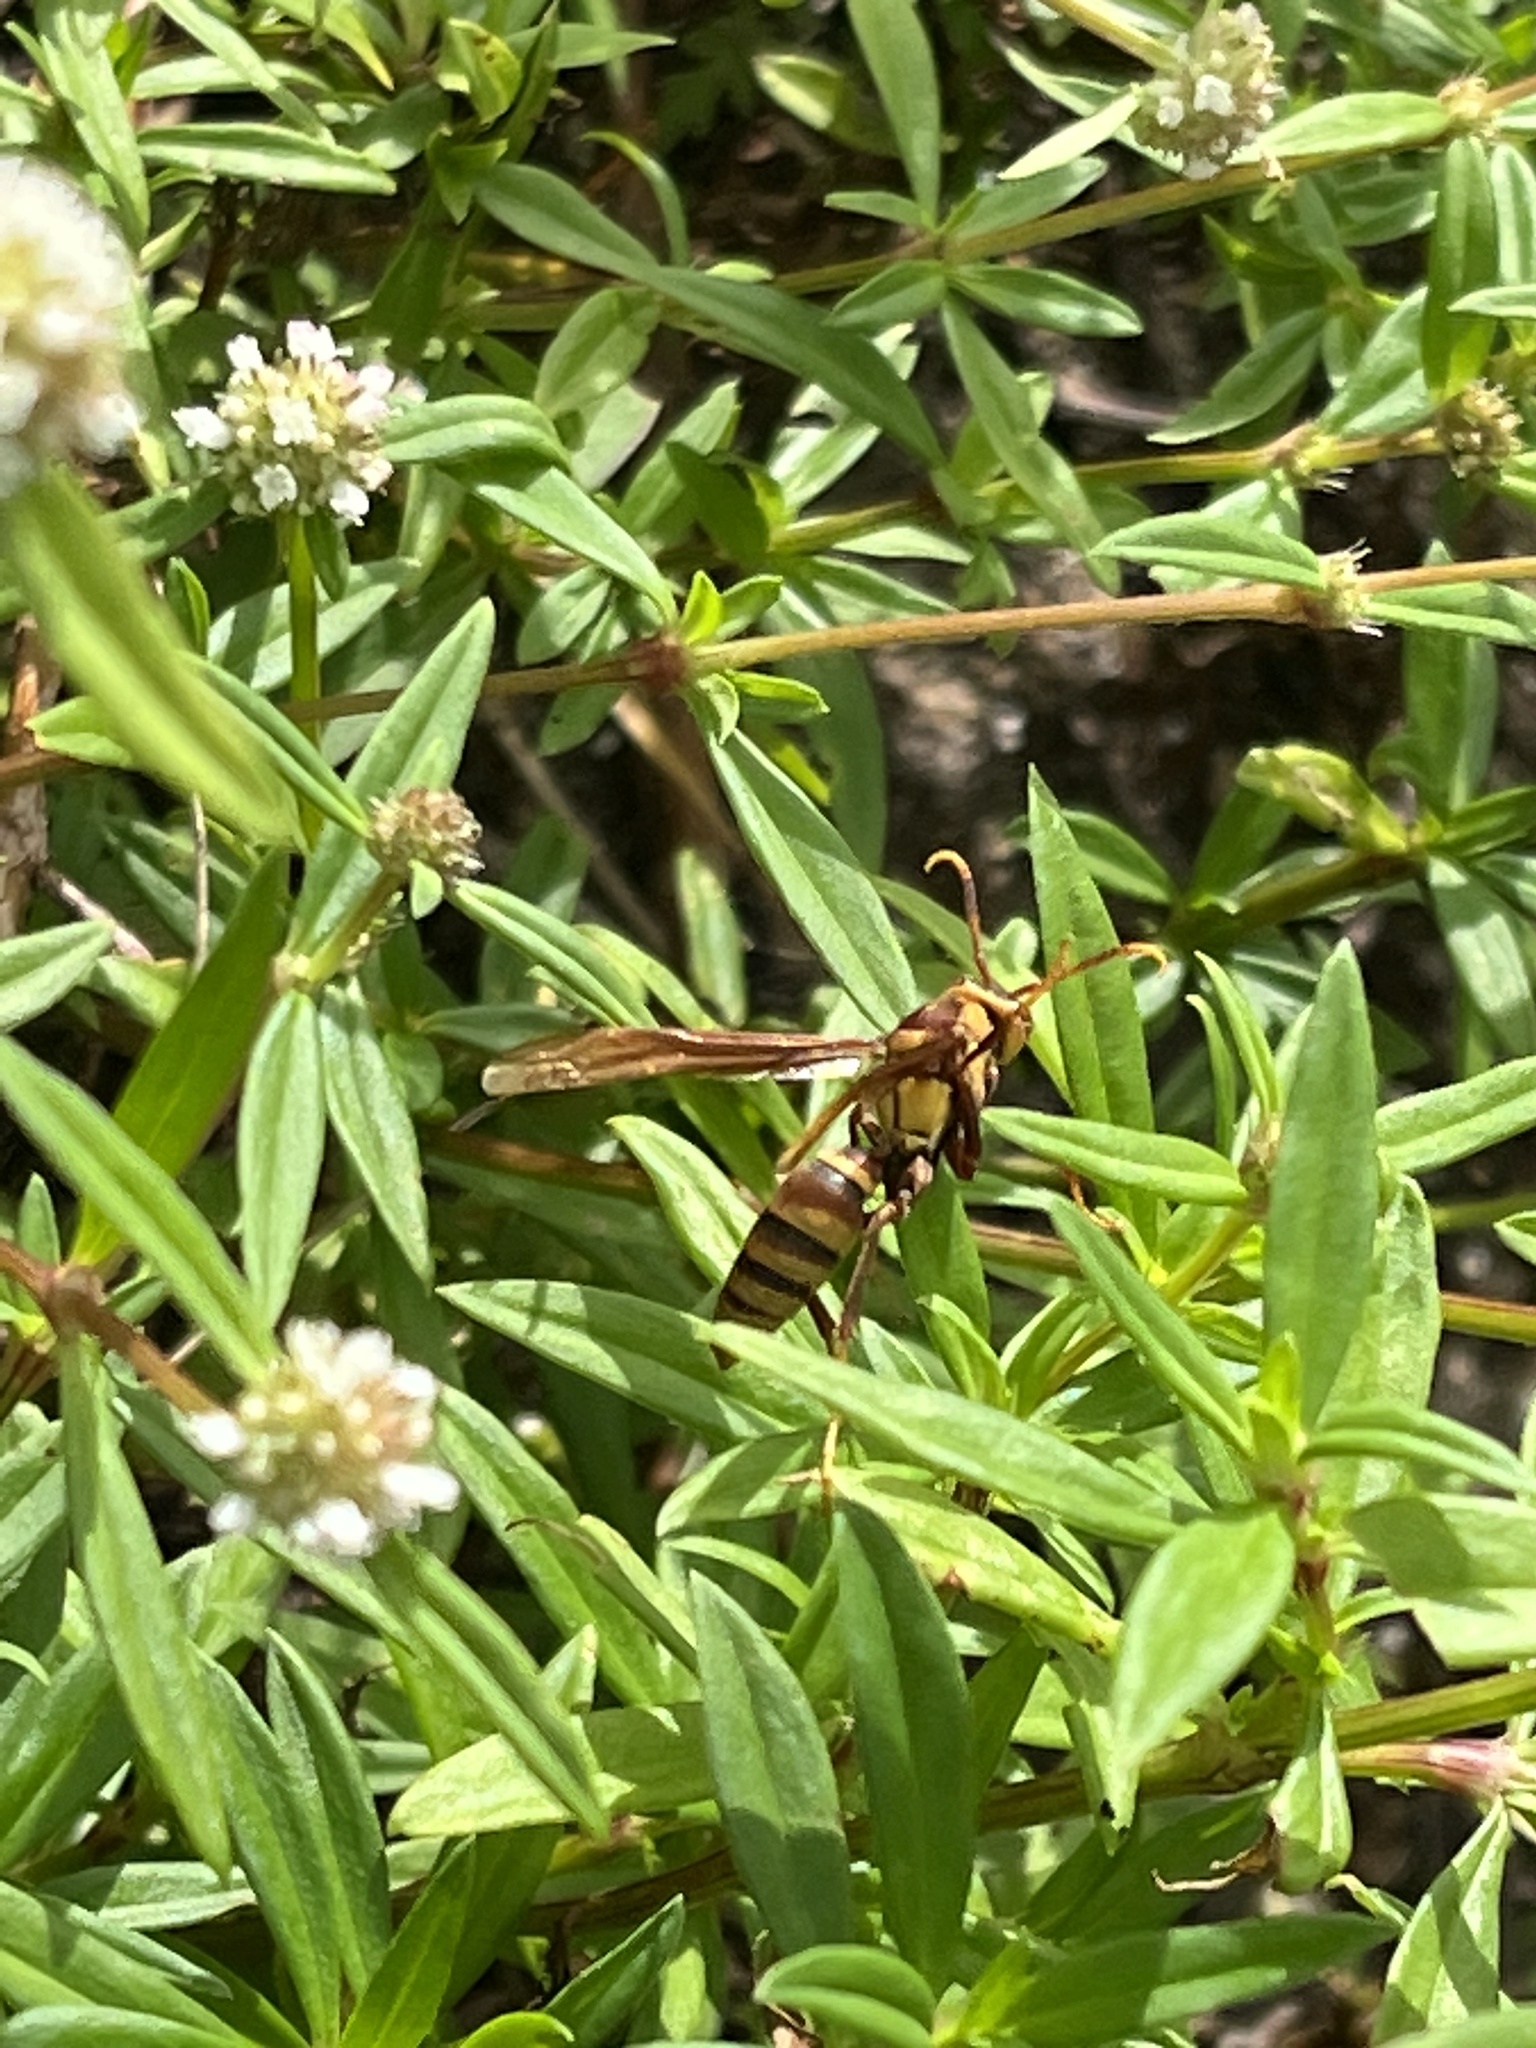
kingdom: Animalia
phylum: Arthropoda
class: Insecta
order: Hymenoptera
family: Eumenidae
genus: Polistes
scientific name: Polistes major
